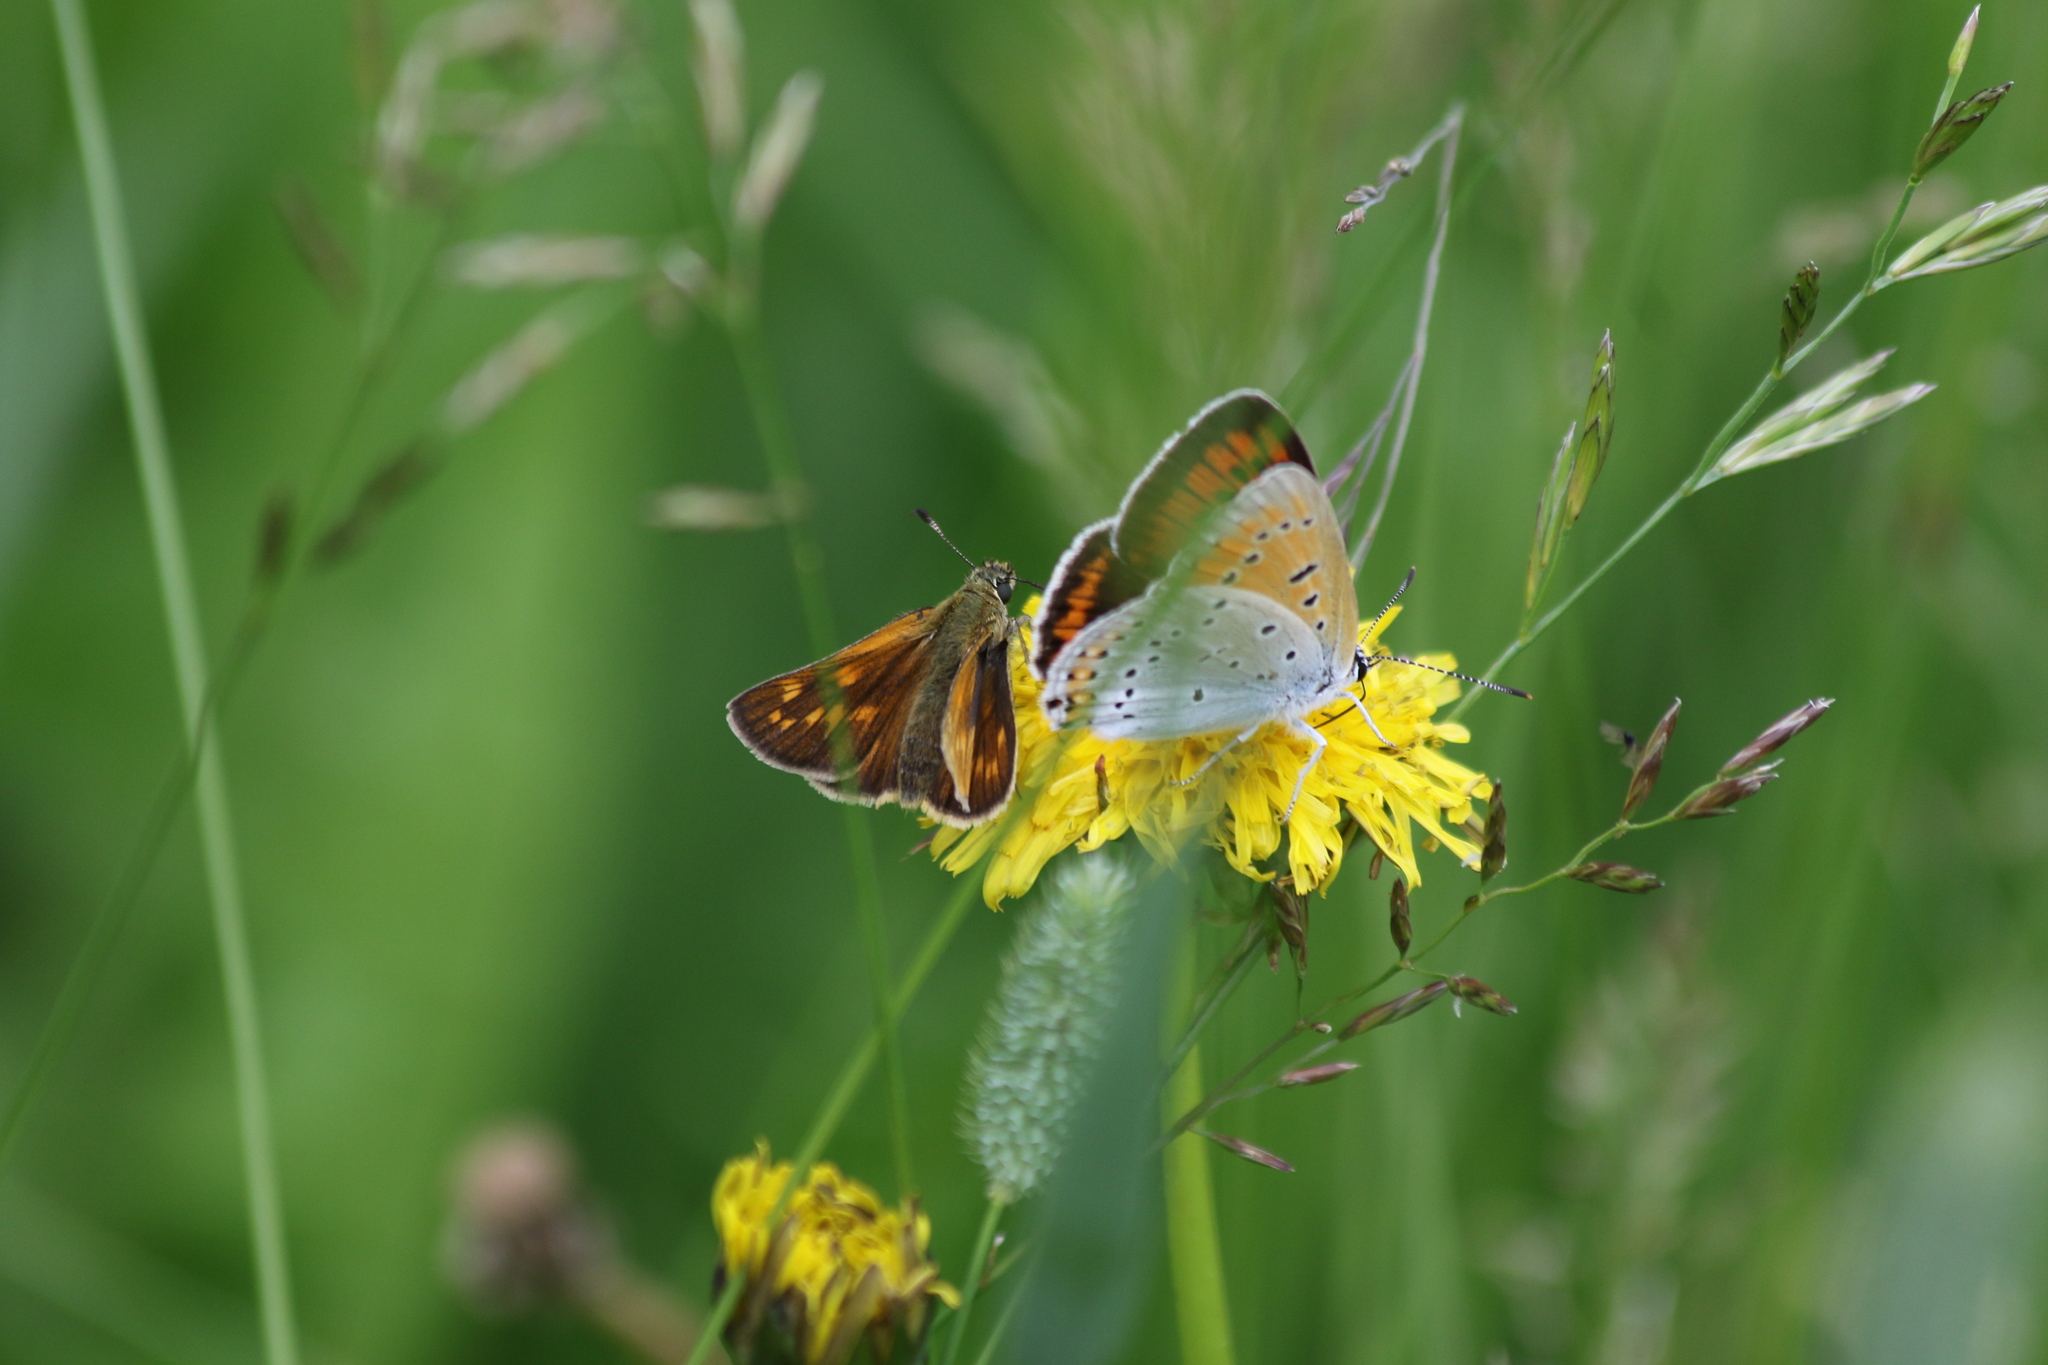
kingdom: Animalia
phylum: Arthropoda
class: Insecta
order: Lepidoptera
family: Lycaenidae
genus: Lycaena
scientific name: Lycaena dispar
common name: Large copper
